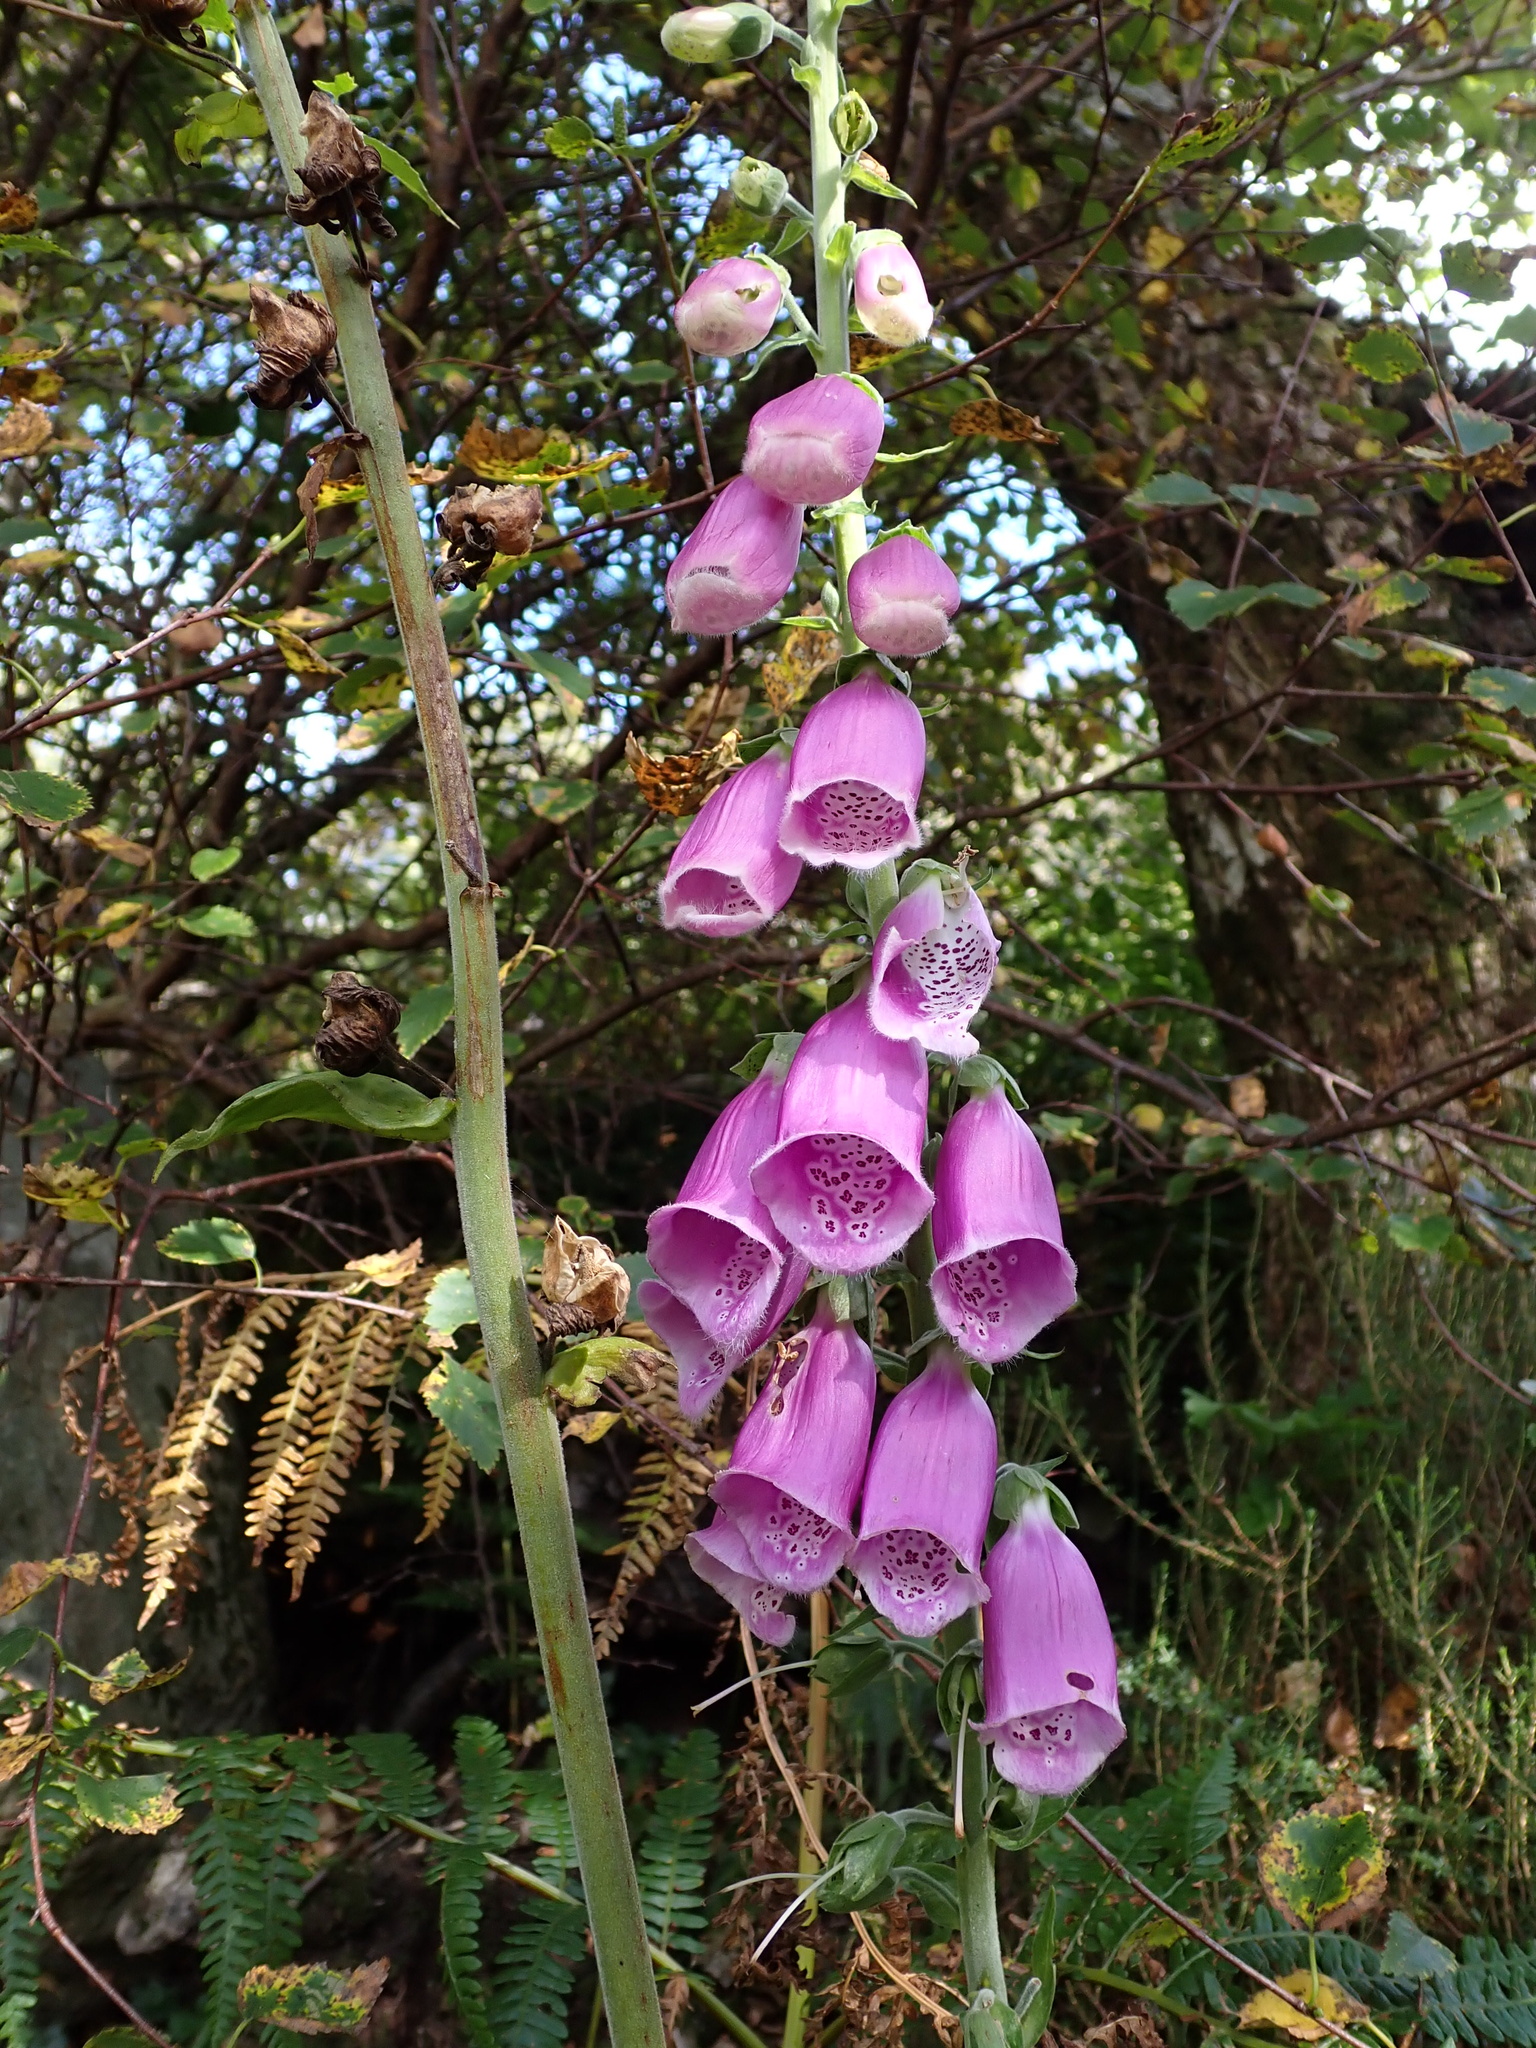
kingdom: Plantae
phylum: Tracheophyta
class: Magnoliopsida
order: Lamiales
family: Plantaginaceae
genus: Digitalis
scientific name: Digitalis purpurea
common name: Foxglove
